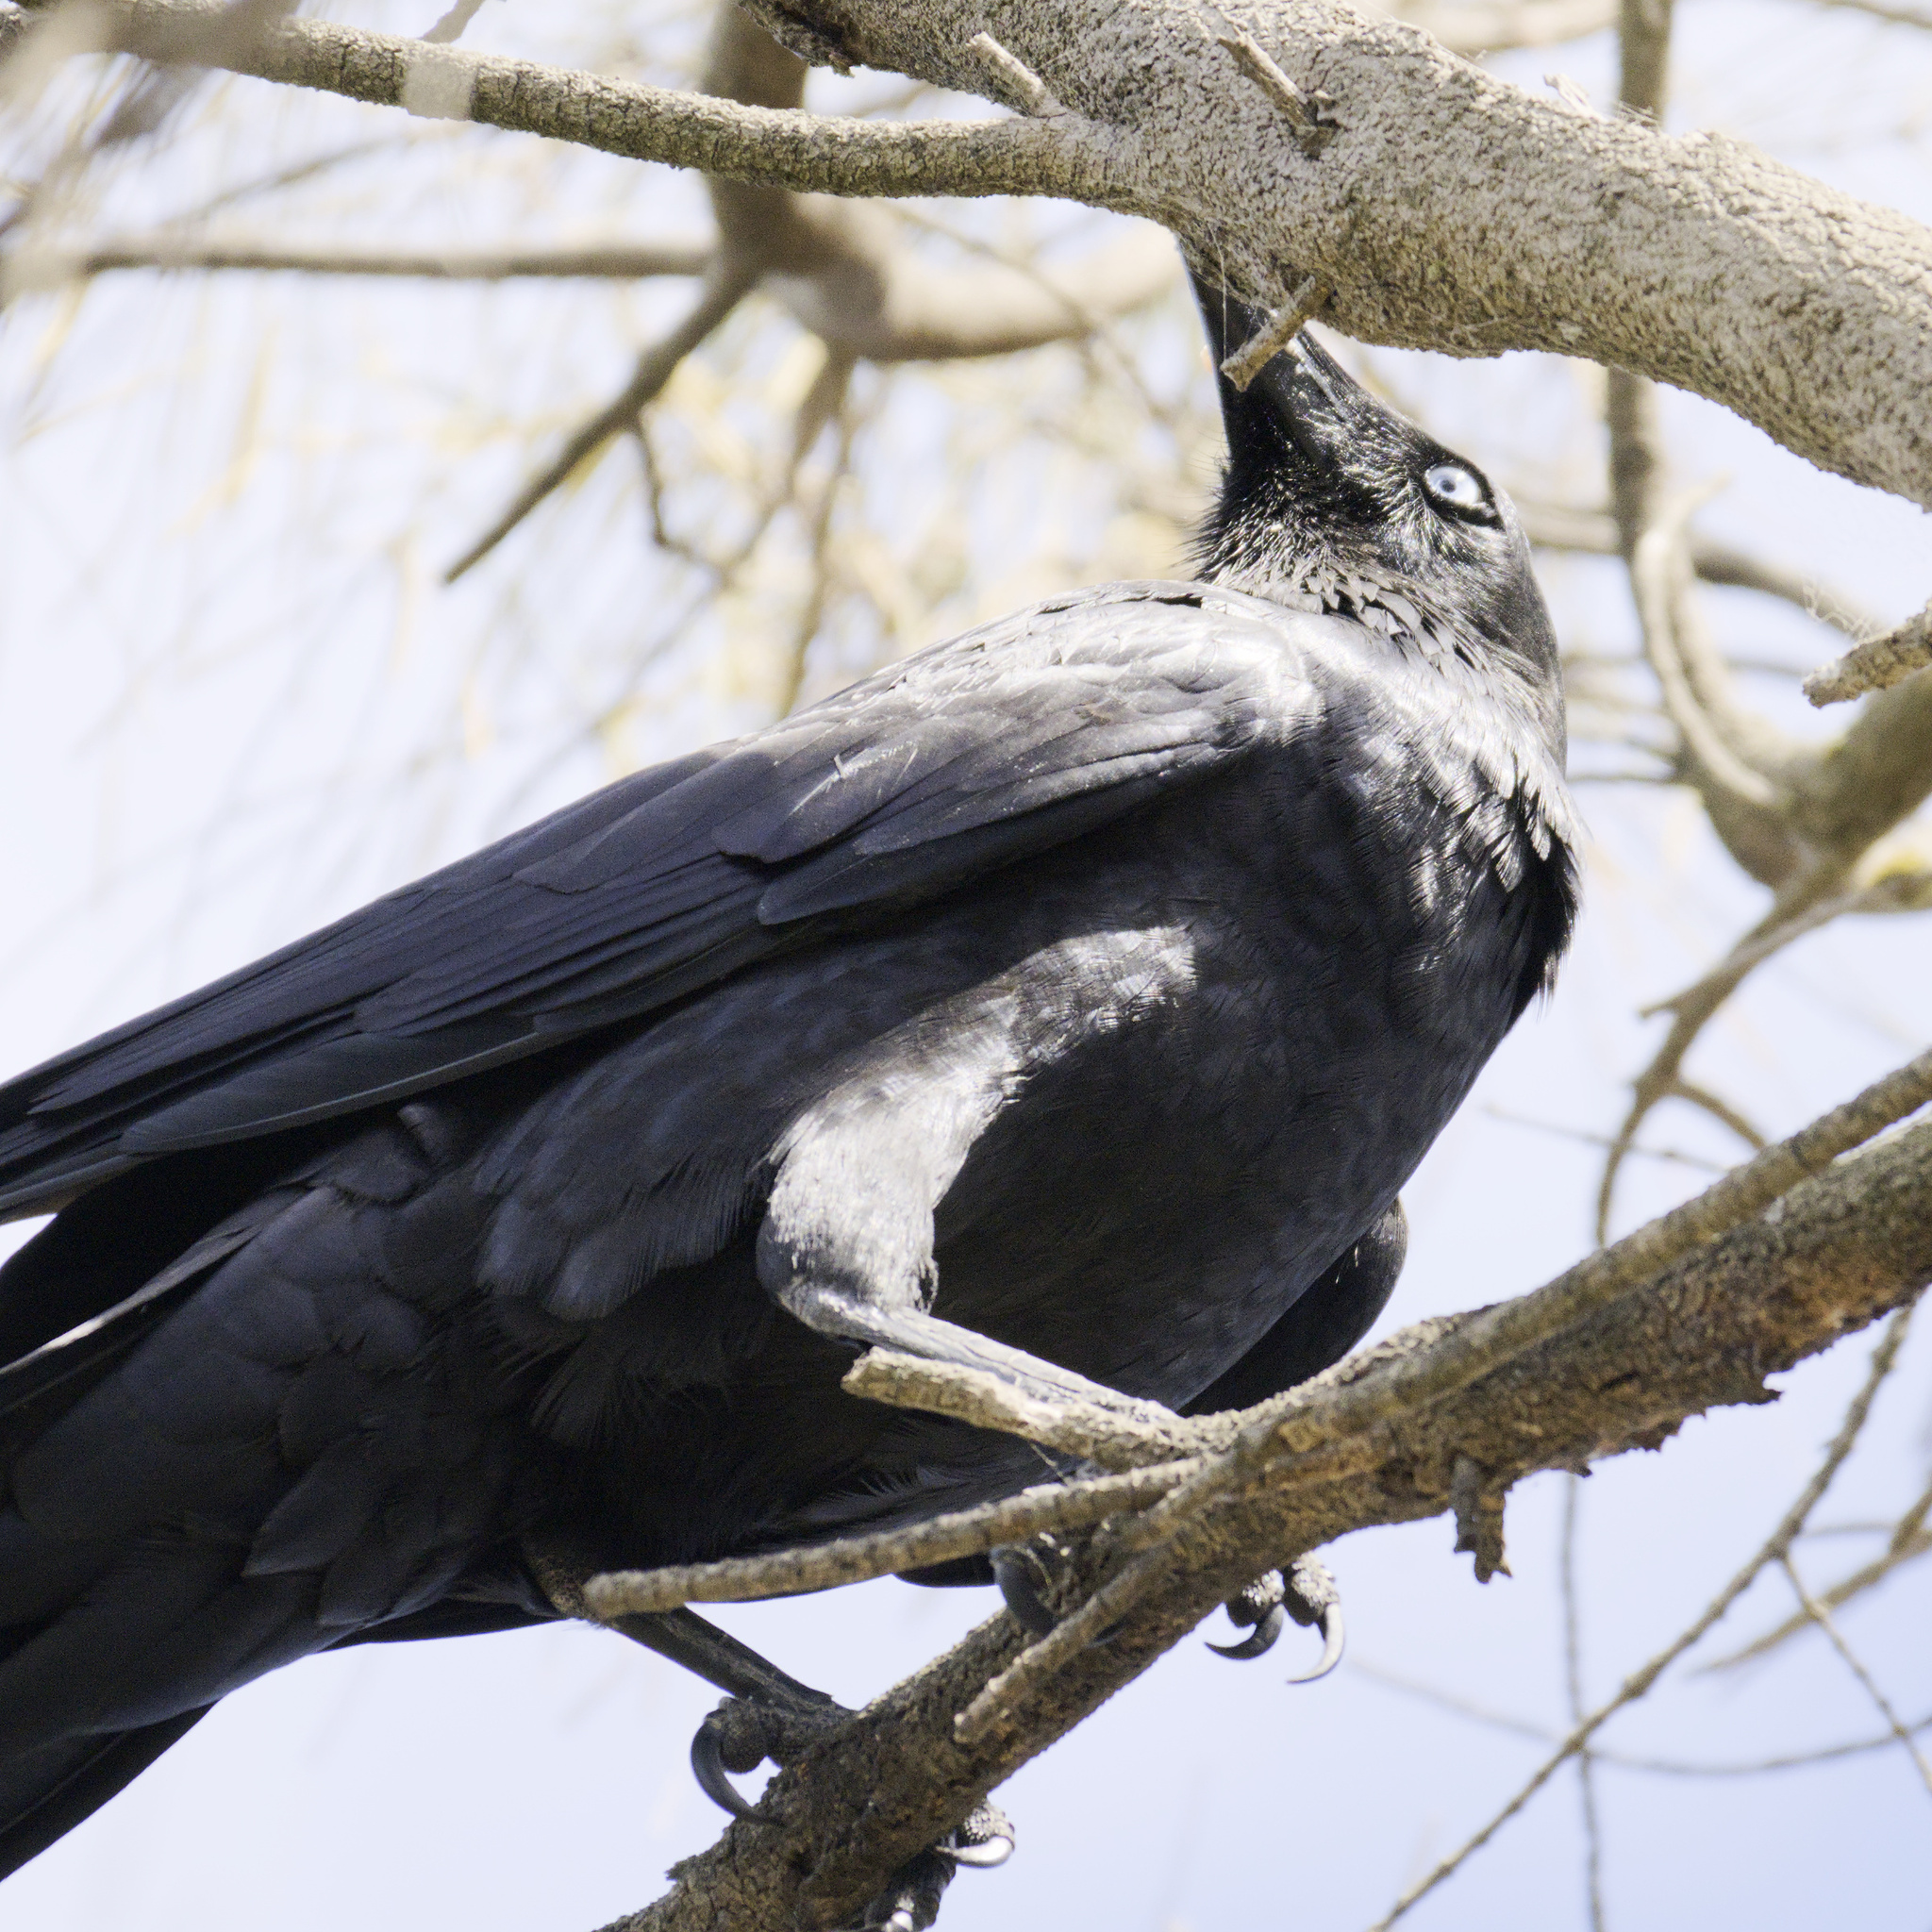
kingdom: Animalia
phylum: Chordata
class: Aves
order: Passeriformes
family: Corvidae
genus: Corvus
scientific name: Corvus mellori
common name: Little raven
